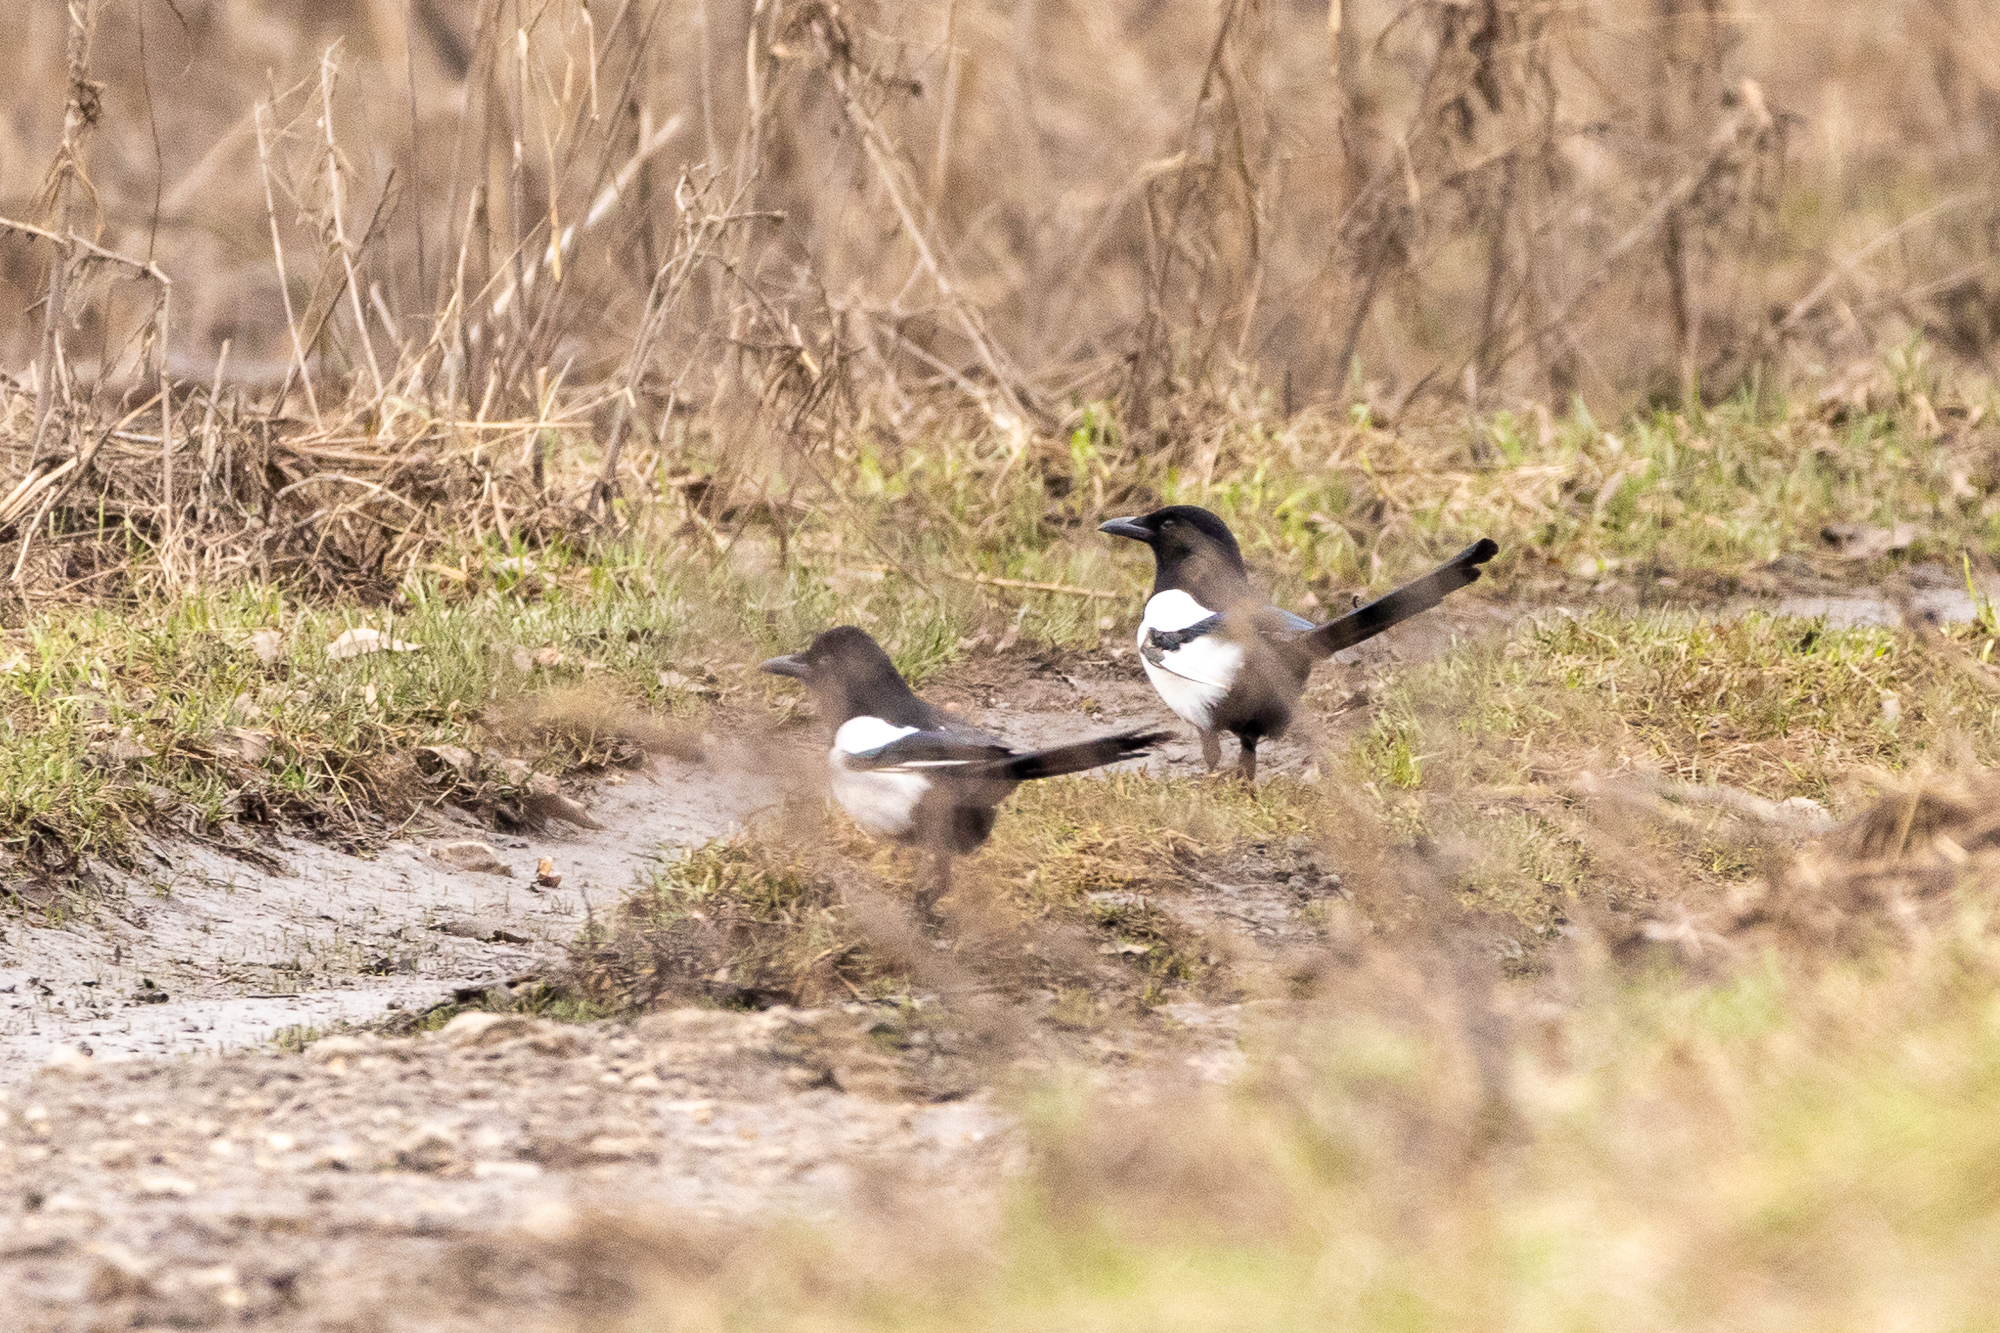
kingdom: Animalia
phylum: Chordata
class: Aves
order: Passeriformes
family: Corvidae
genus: Pica
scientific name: Pica pica
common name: Eurasian magpie
